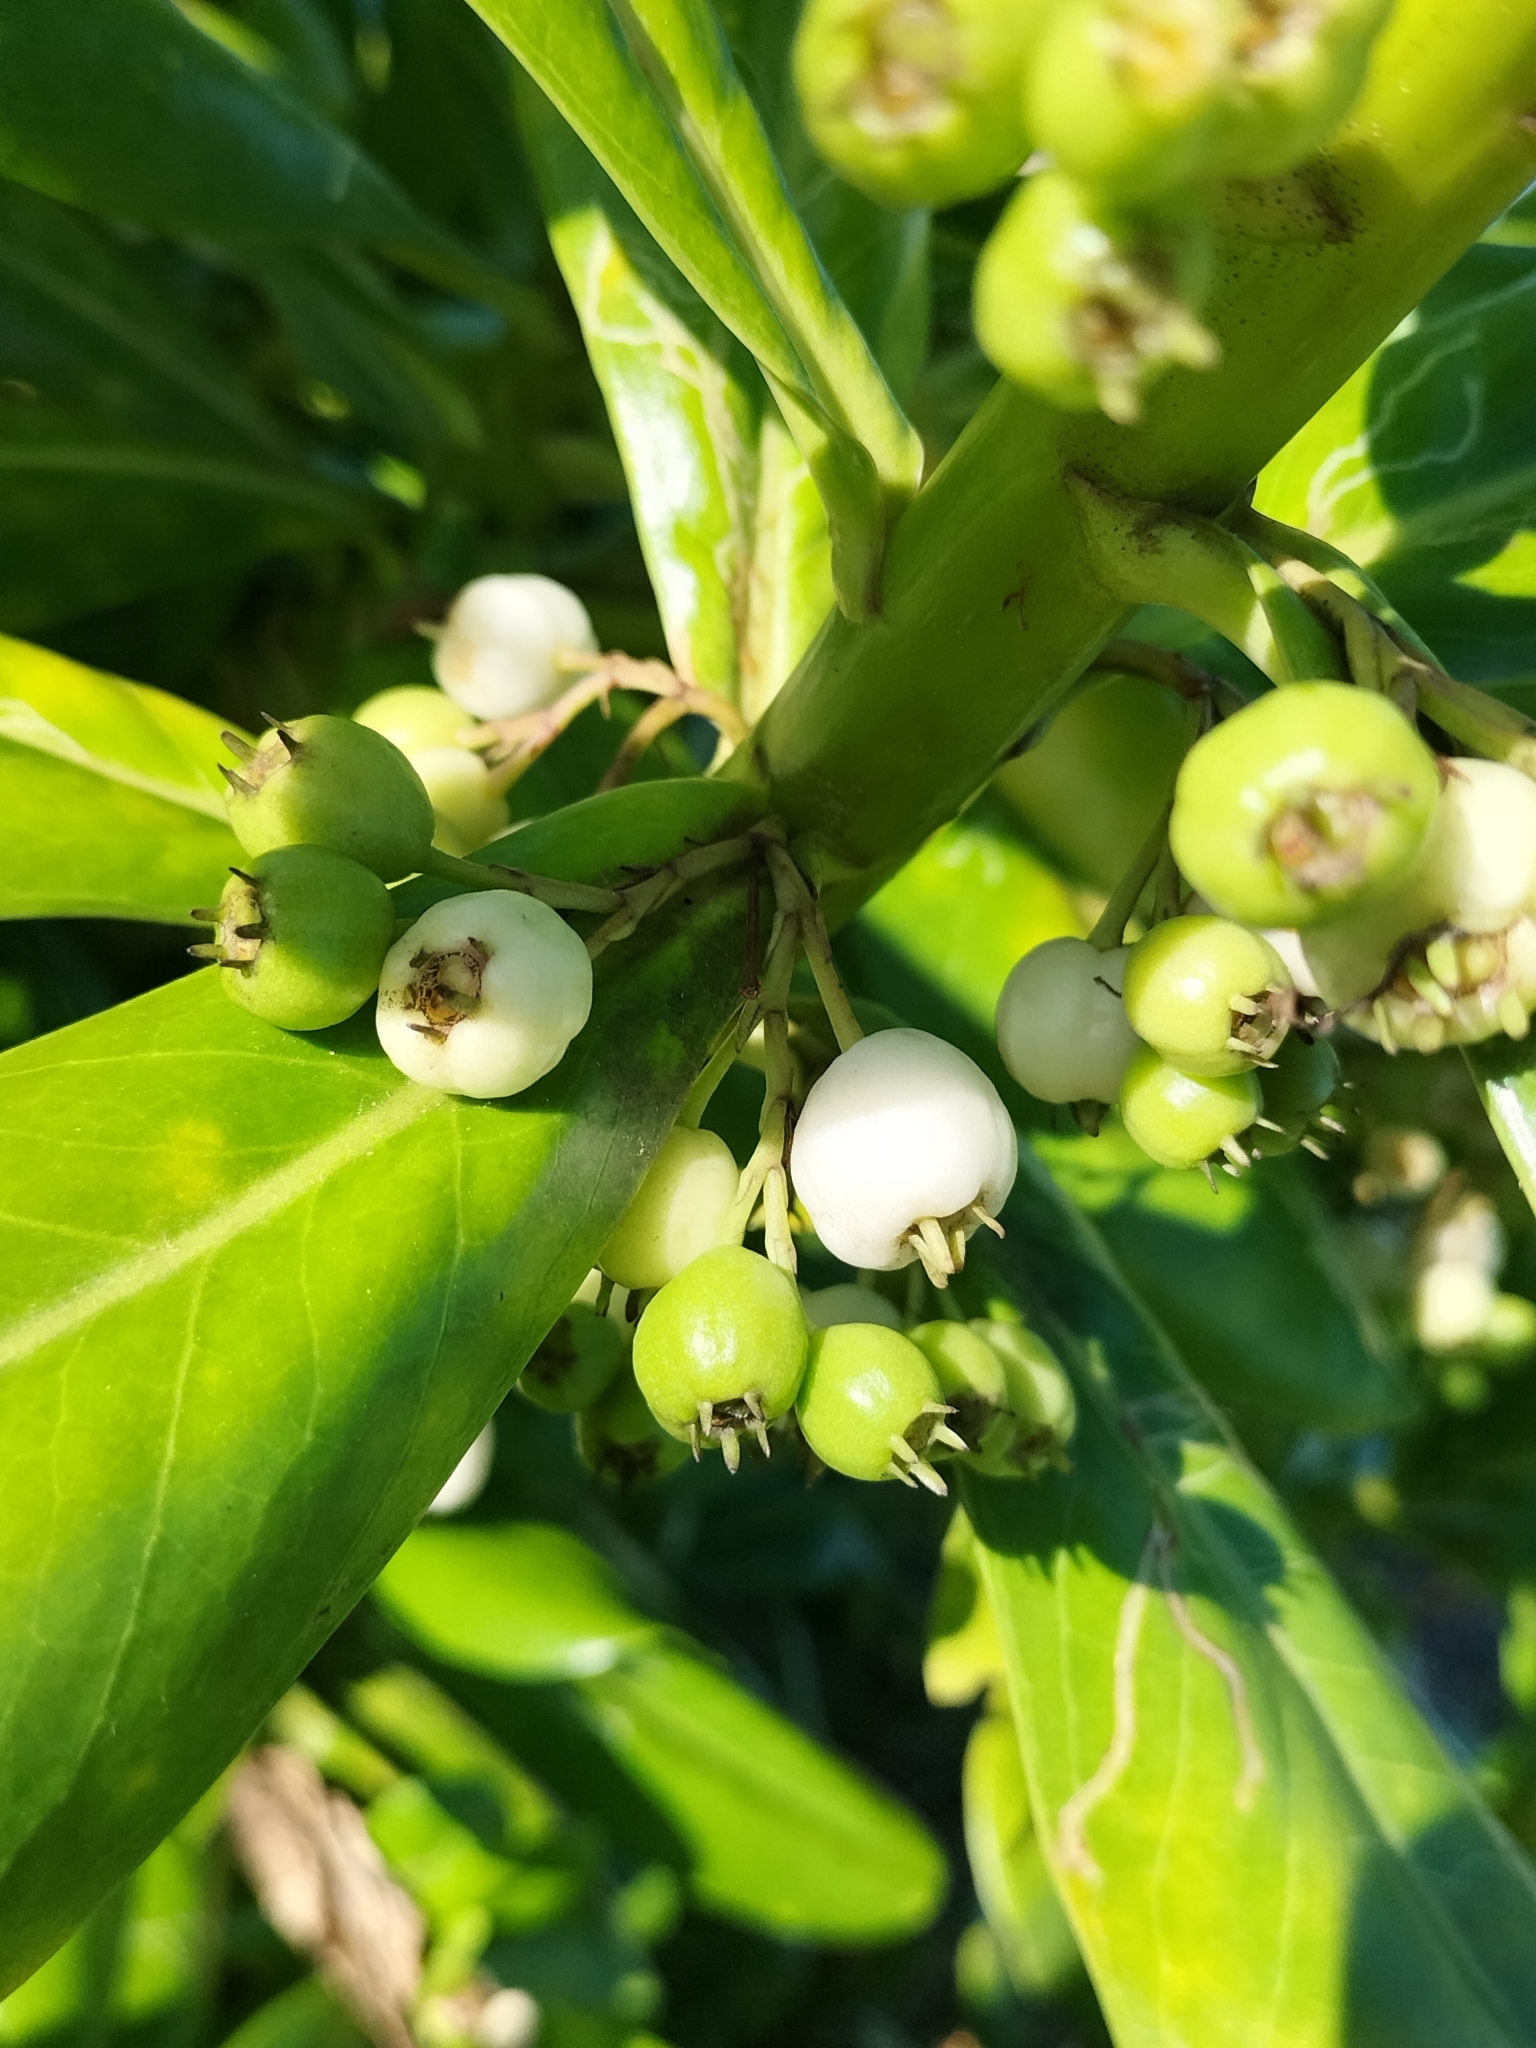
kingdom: Plantae
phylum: Tracheophyta
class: Magnoliopsida
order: Asterales
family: Goodeniaceae
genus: Scaevola
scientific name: Scaevola taccada
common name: Sea lettucetree
